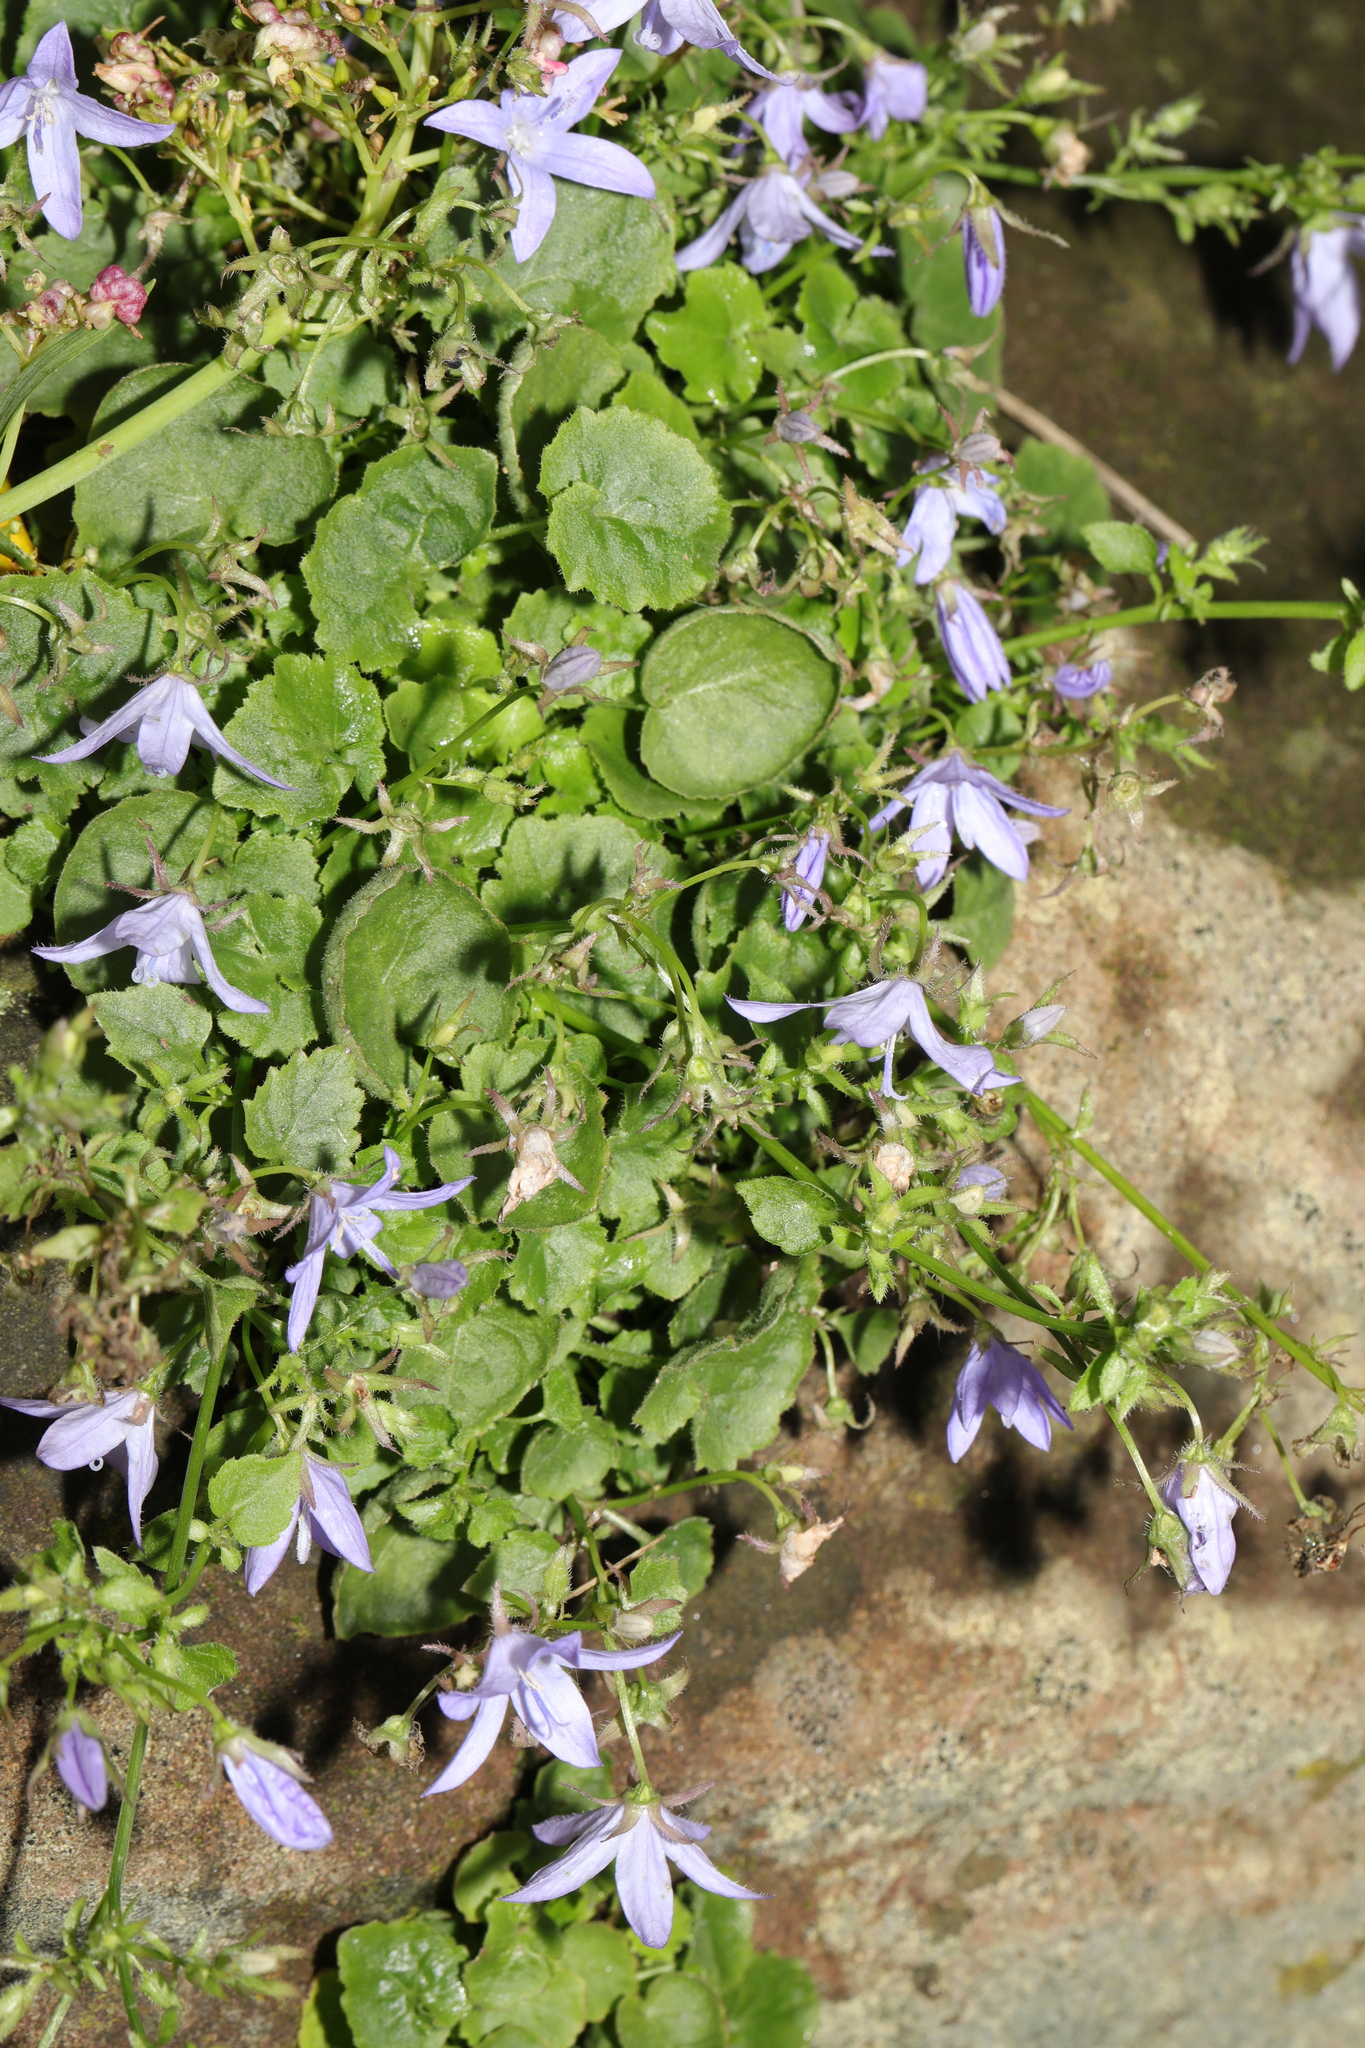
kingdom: Plantae
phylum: Tracheophyta
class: Magnoliopsida
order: Asterales
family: Campanulaceae
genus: Campanula
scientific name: Campanula poscharskyana
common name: Trailing bellflower
